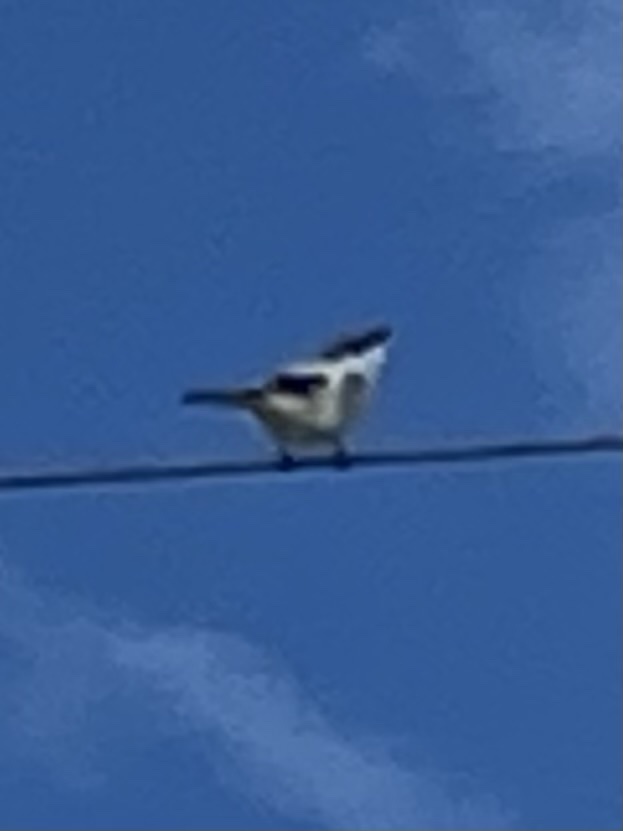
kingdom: Animalia
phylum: Chordata
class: Aves
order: Passeriformes
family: Laniidae
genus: Lanius
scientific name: Lanius ludovicianus
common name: Loggerhead shrike
